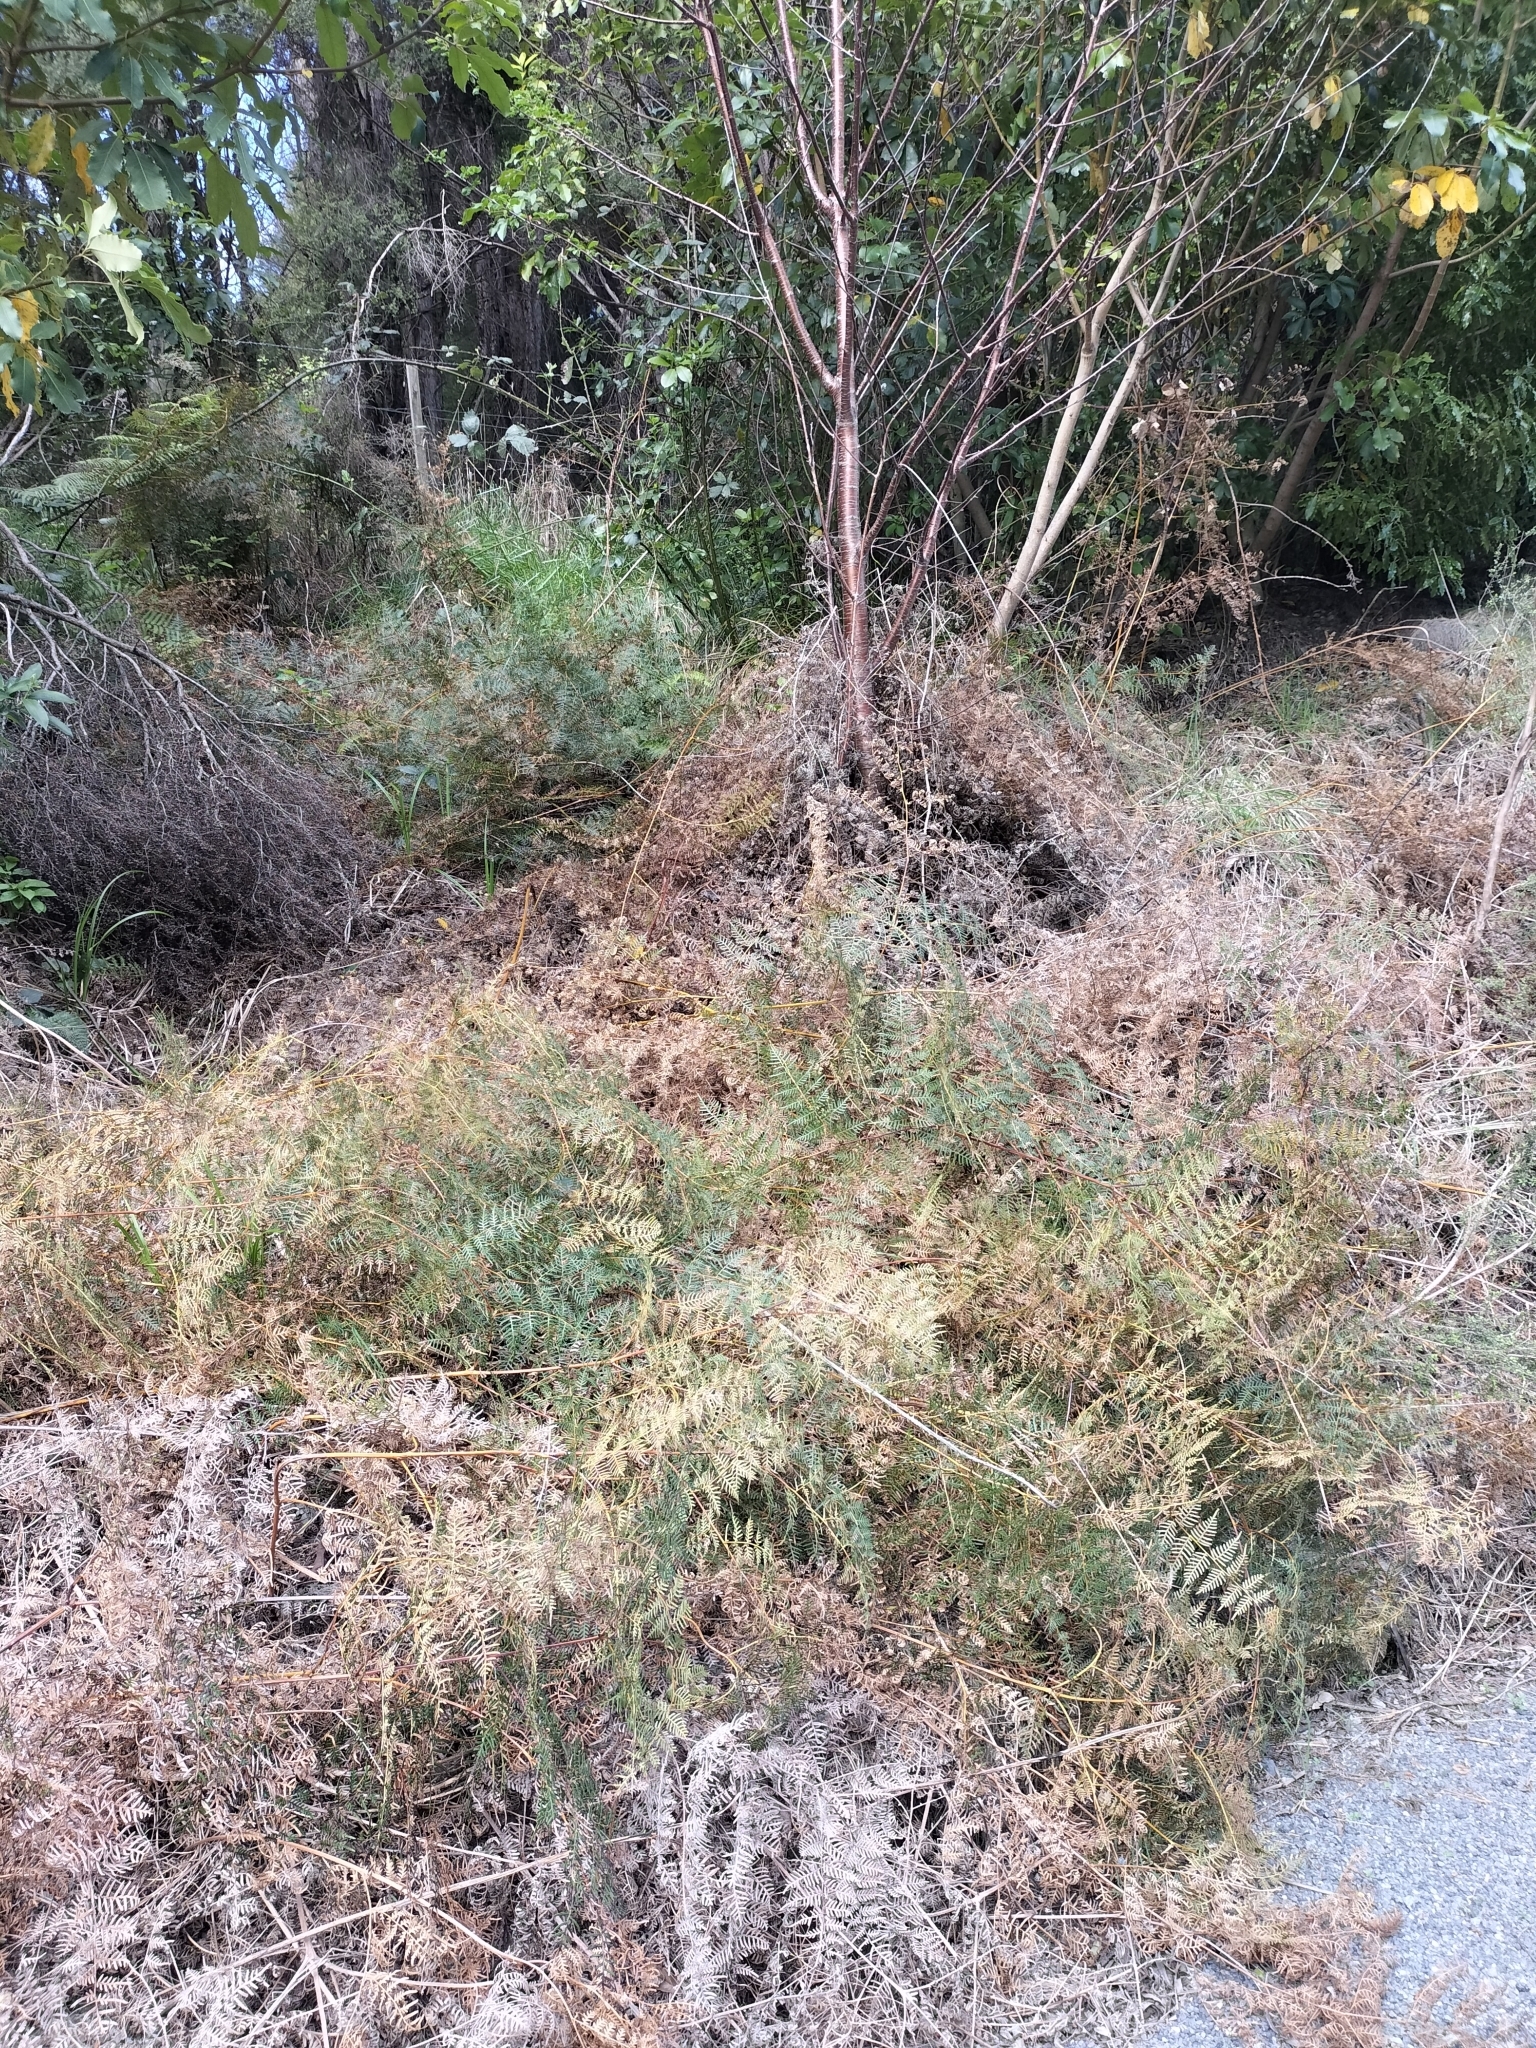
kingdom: Plantae
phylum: Tracheophyta
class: Polypodiopsida
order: Polypodiales
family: Dennstaedtiaceae
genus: Pteridium
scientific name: Pteridium esculentum
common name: Bracken fern
